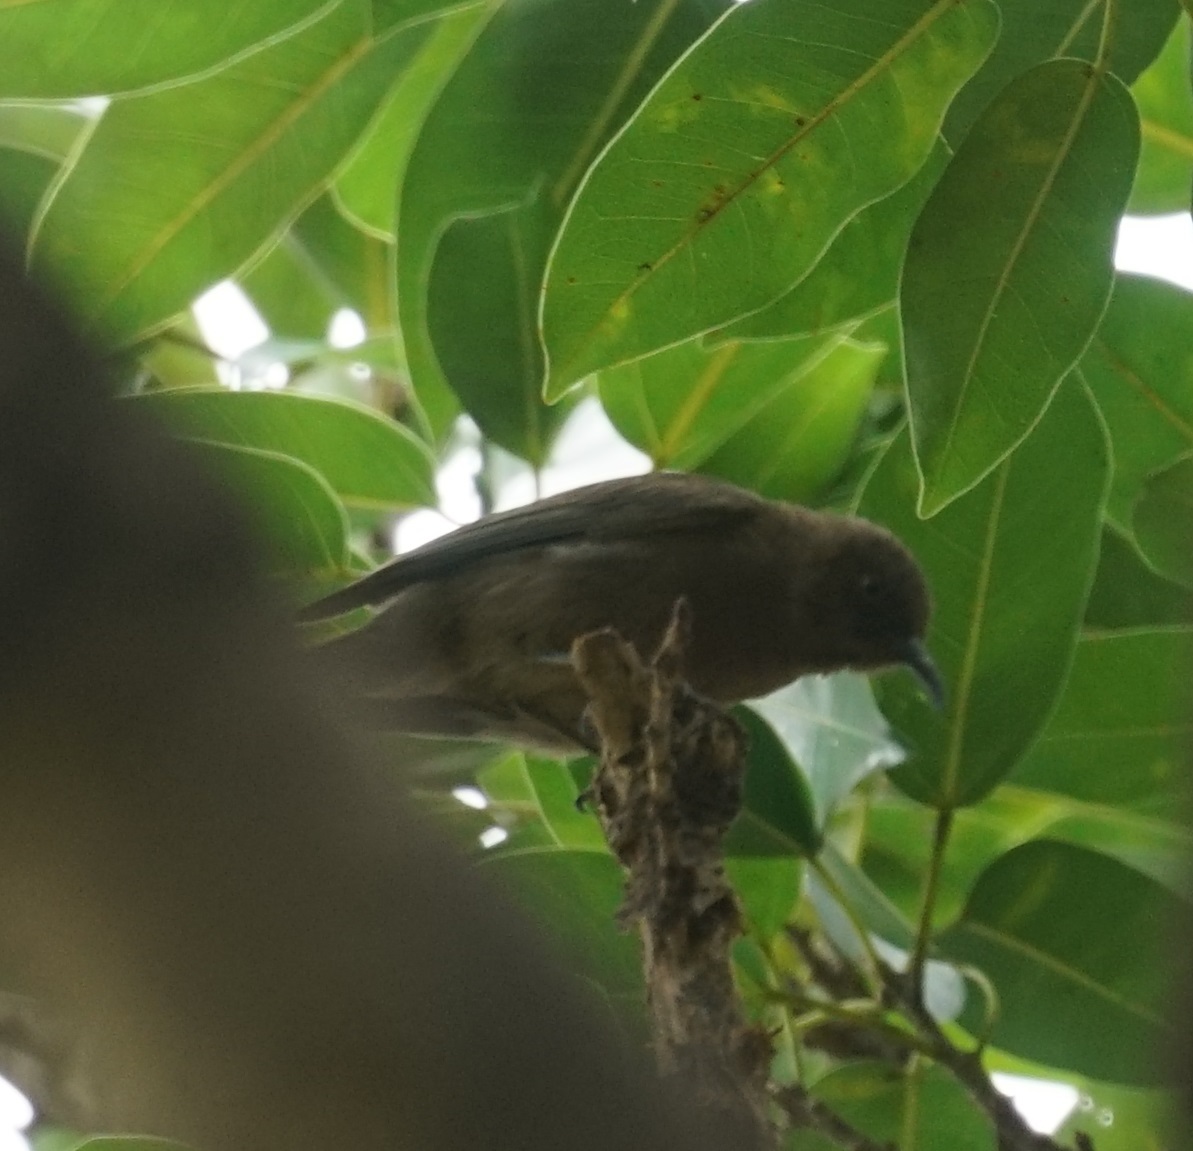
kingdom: Animalia
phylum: Chordata
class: Aves
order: Passeriformes
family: Meliphagidae
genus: Myzomela
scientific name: Myzomela obscura
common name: Dusky myzomela
